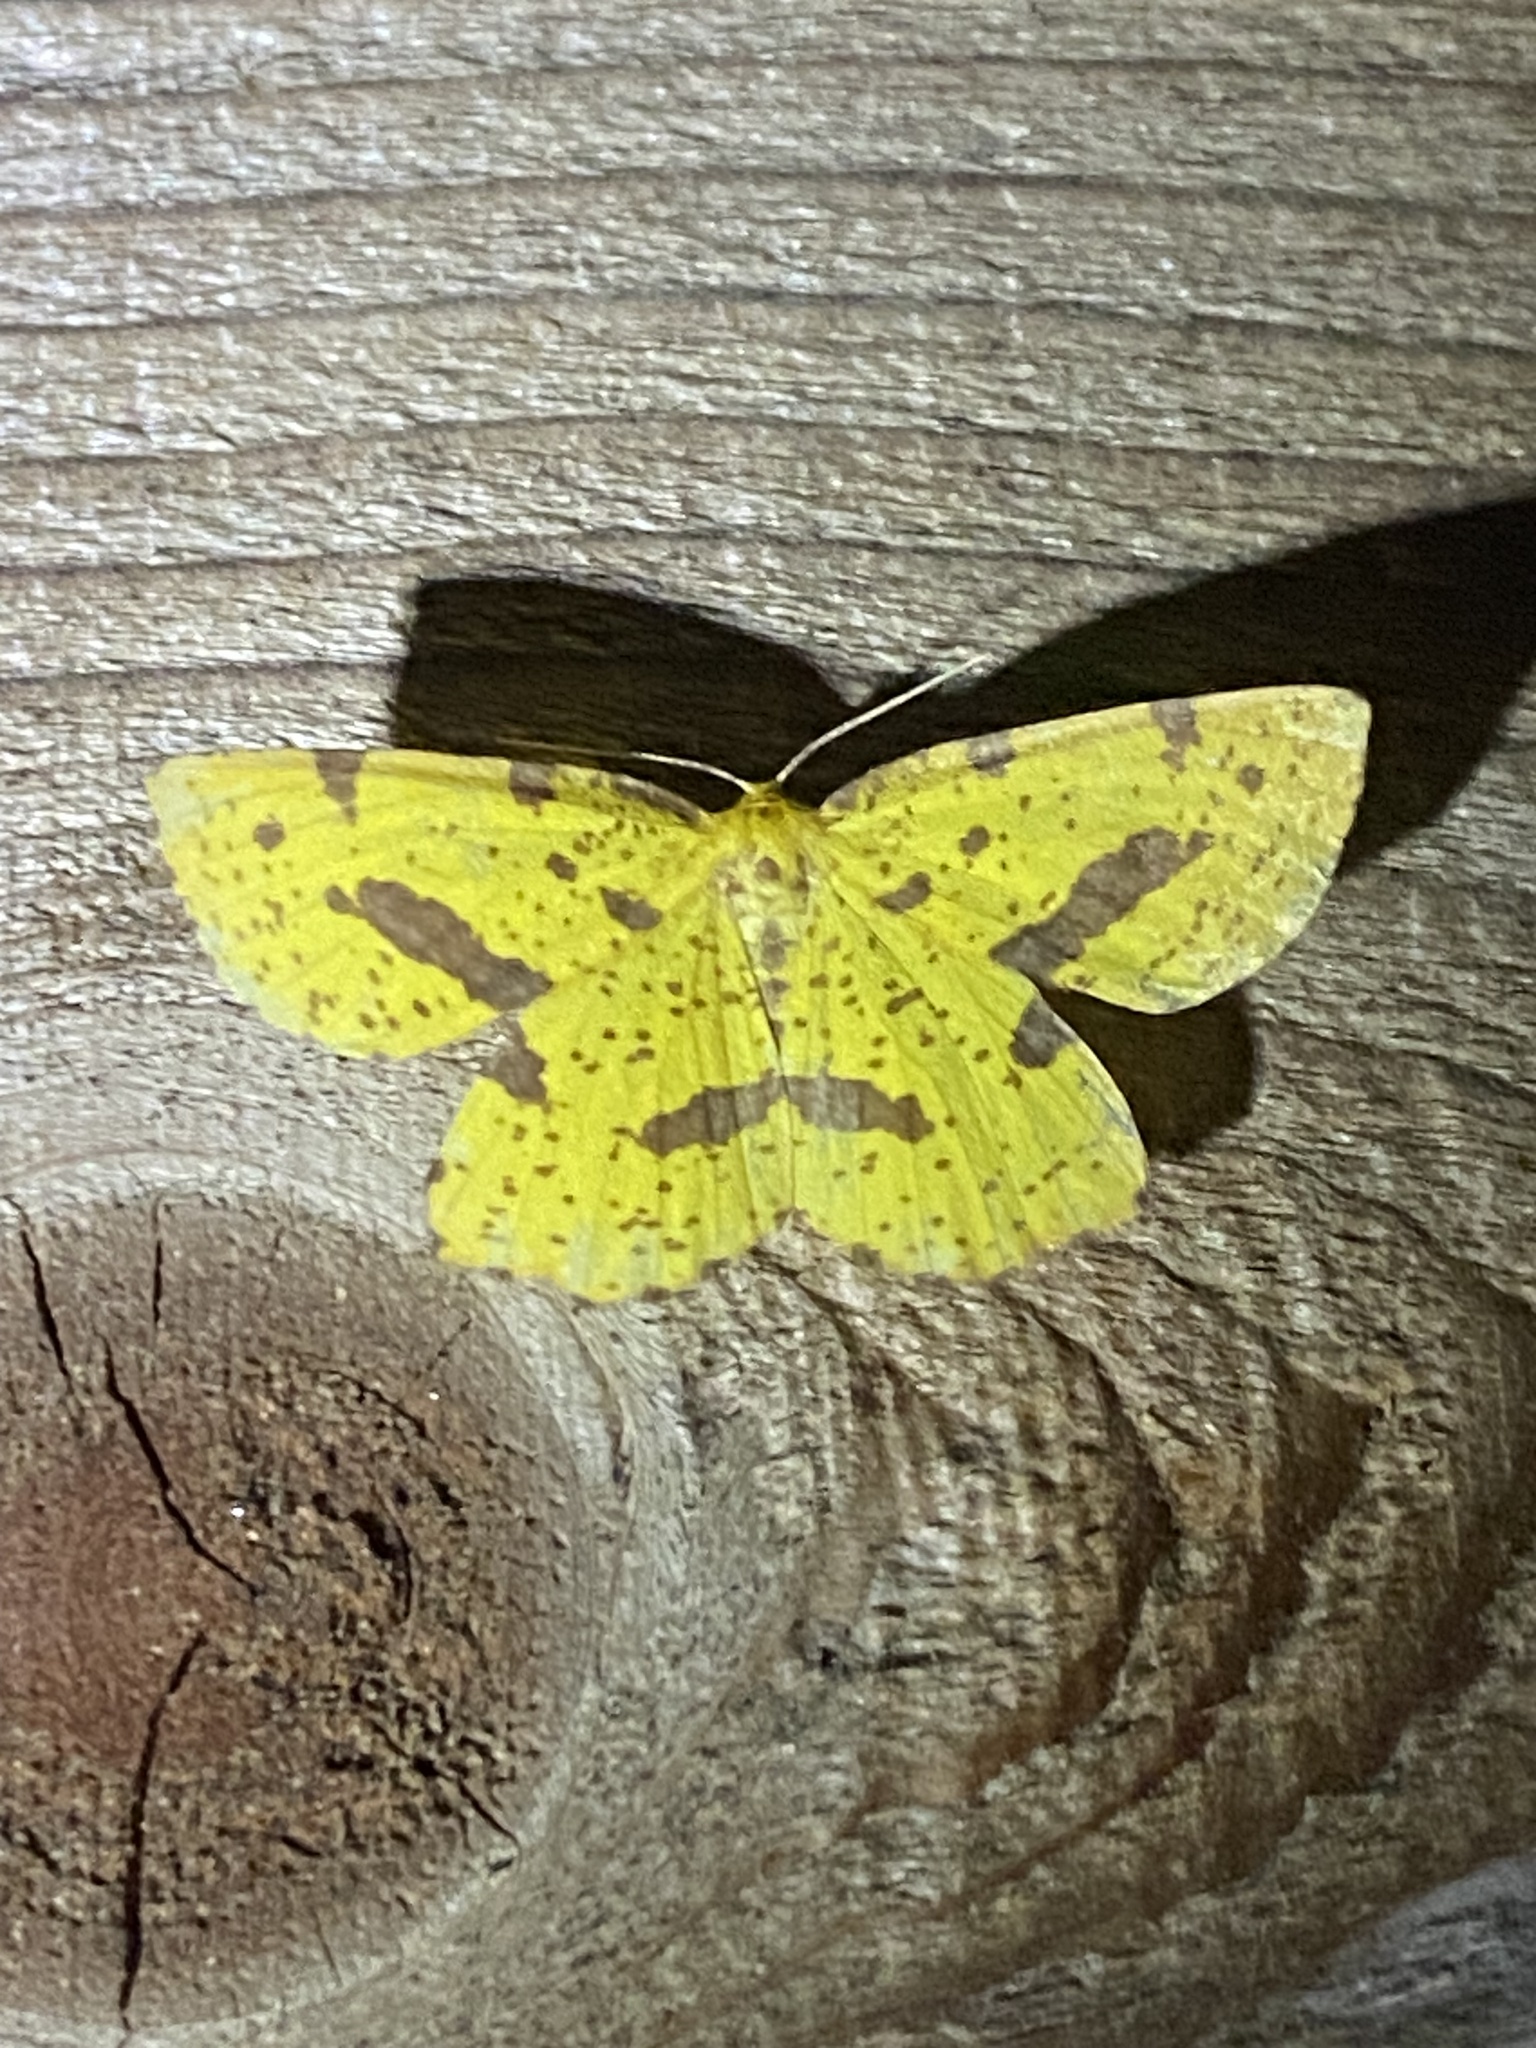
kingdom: Animalia
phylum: Arthropoda
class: Insecta
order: Lepidoptera
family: Geometridae
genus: Xanthotype
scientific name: Xanthotype
